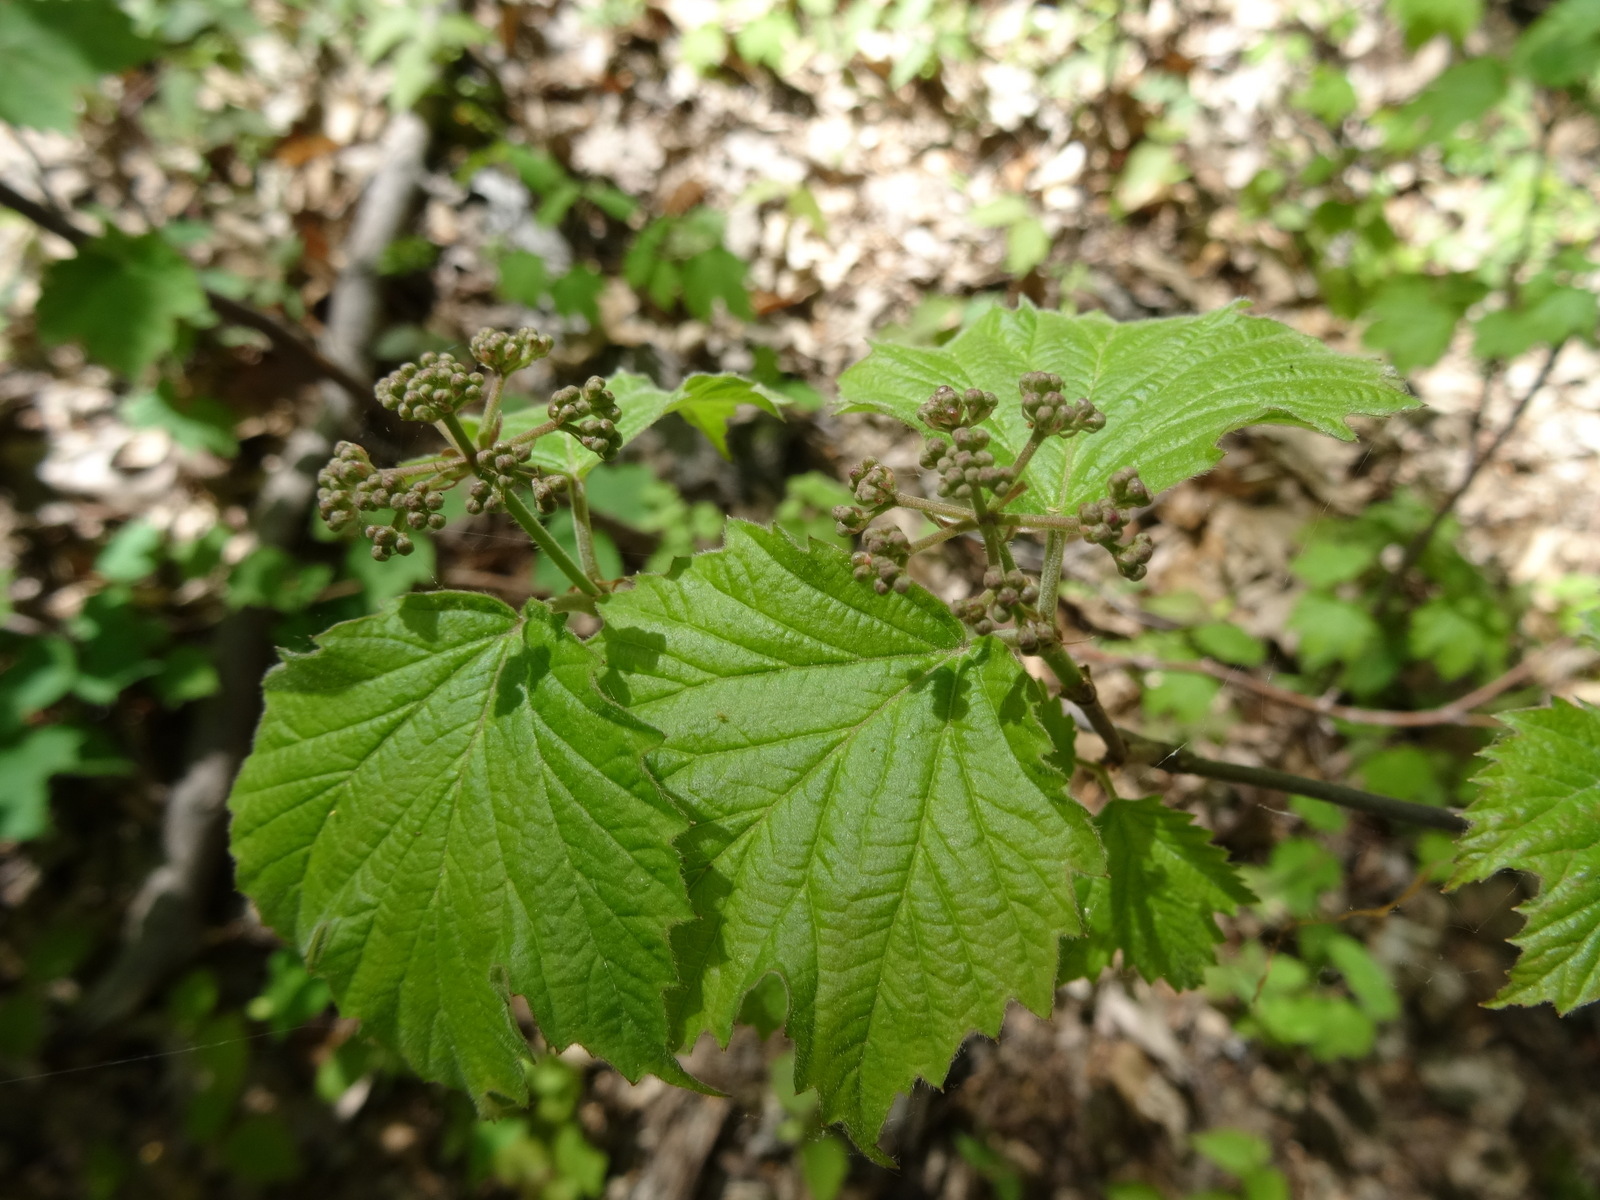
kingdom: Plantae
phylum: Tracheophyta
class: Magnoliopsida
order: Dipsacales
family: Viburnaceae
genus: Viburnum
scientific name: Viburnum acerifolium
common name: Dockmackie
